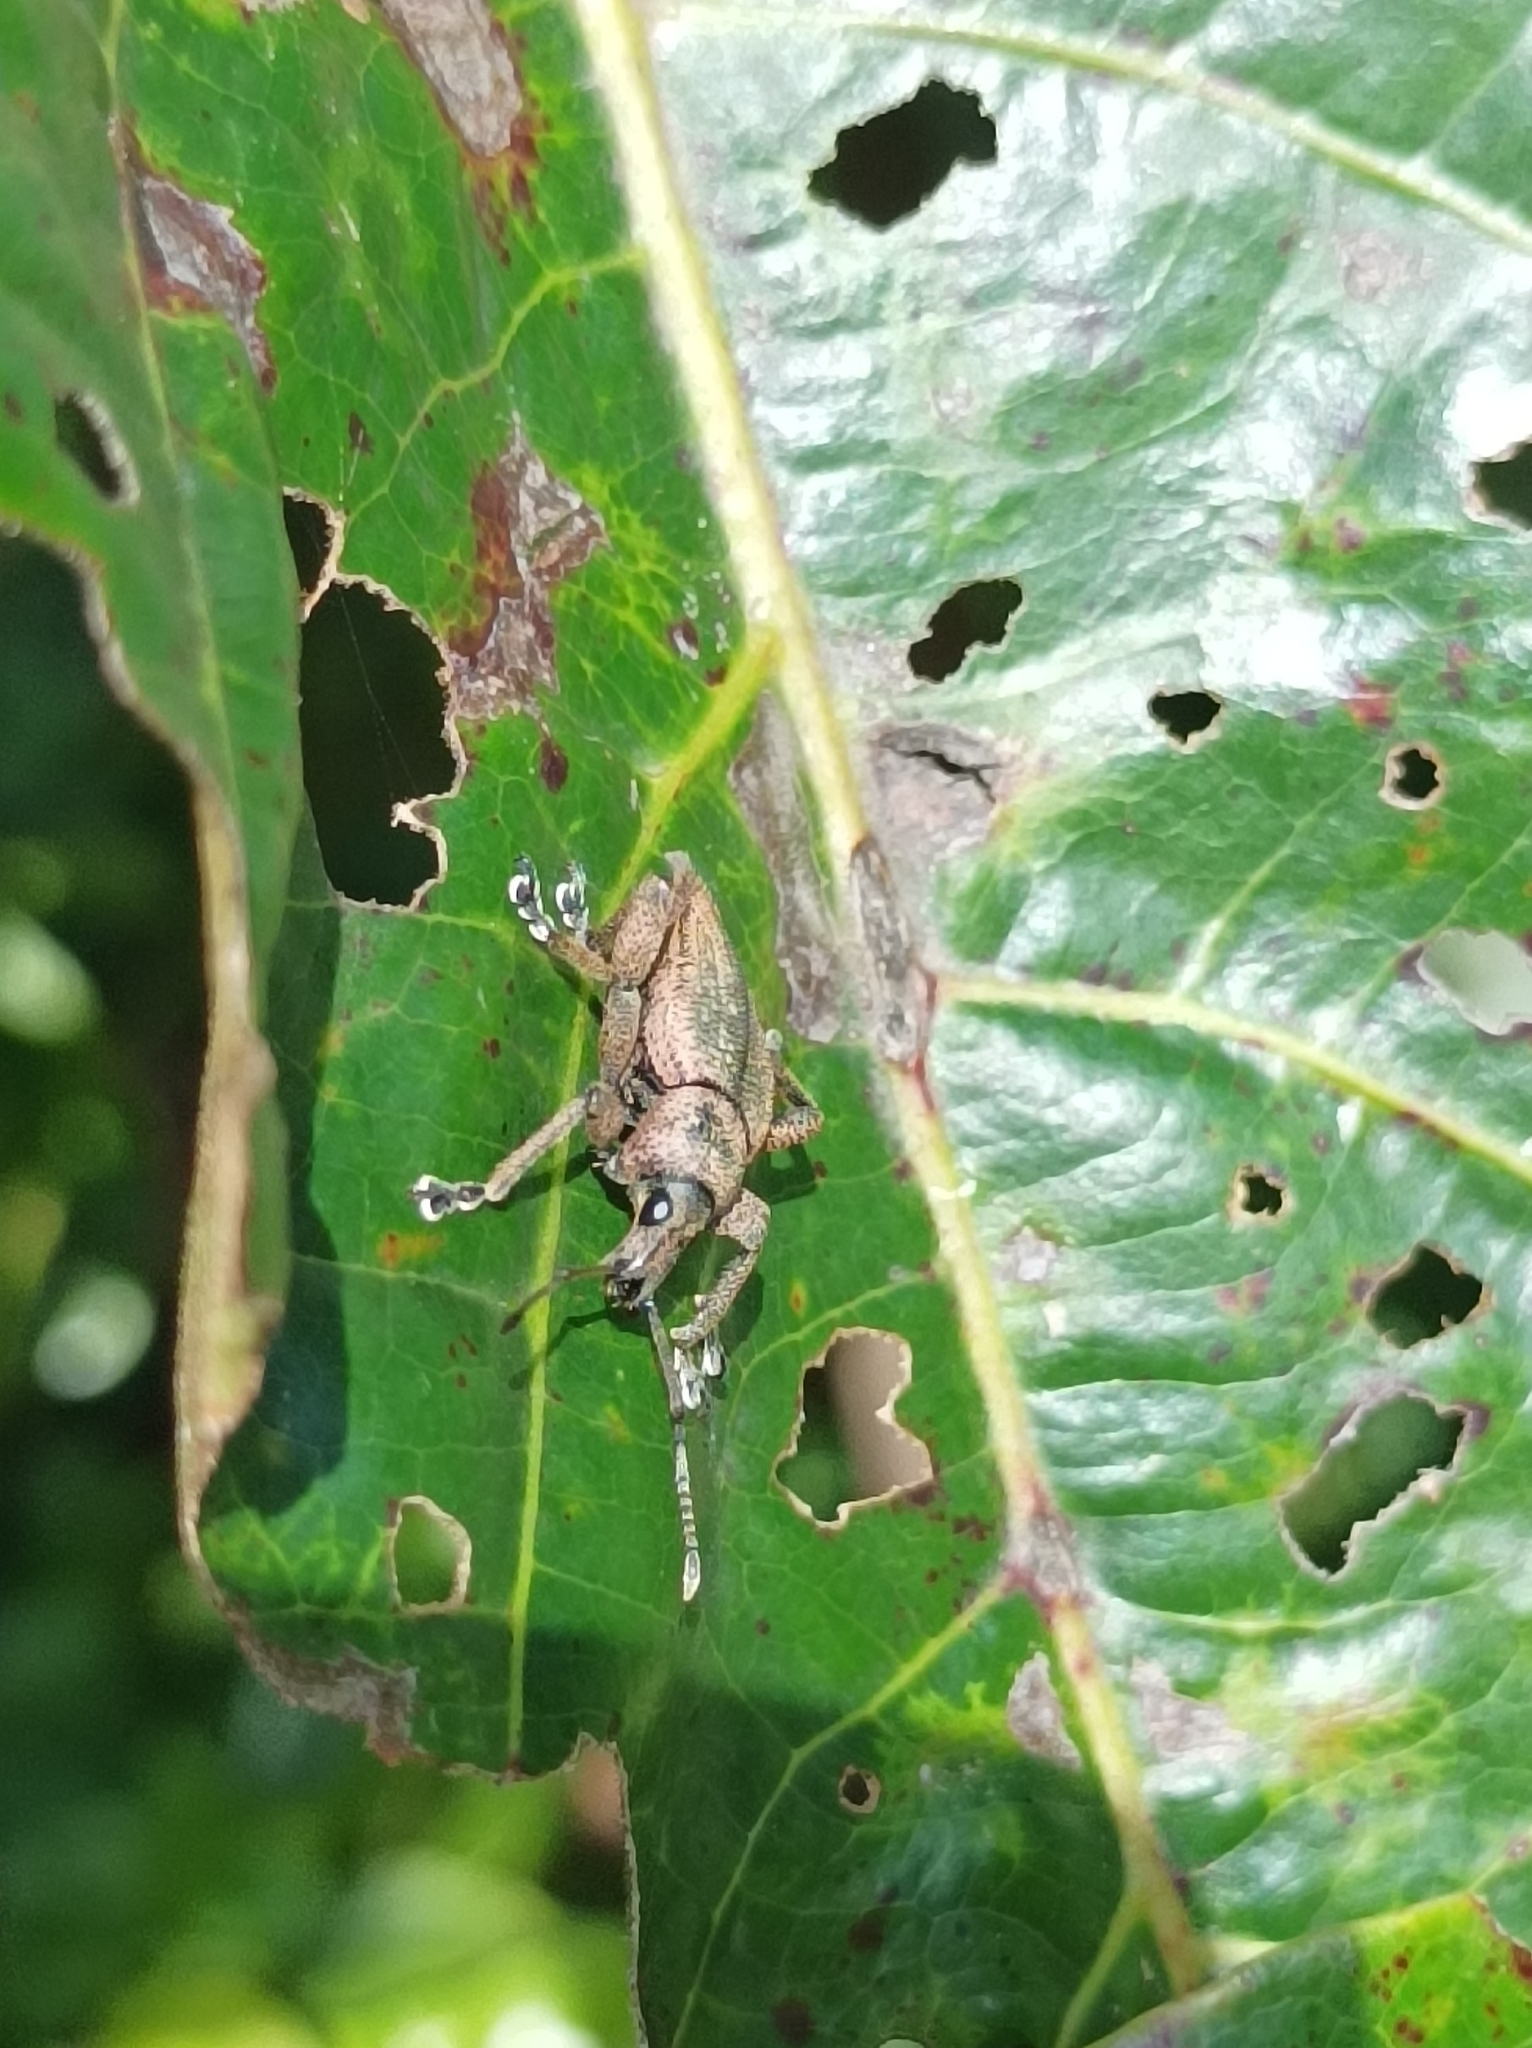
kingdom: Animalia
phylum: Arthropoda
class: Insecta
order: Coleoptera
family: Curculionidae
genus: Elytrurus
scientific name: Elytrurus serrulatus
